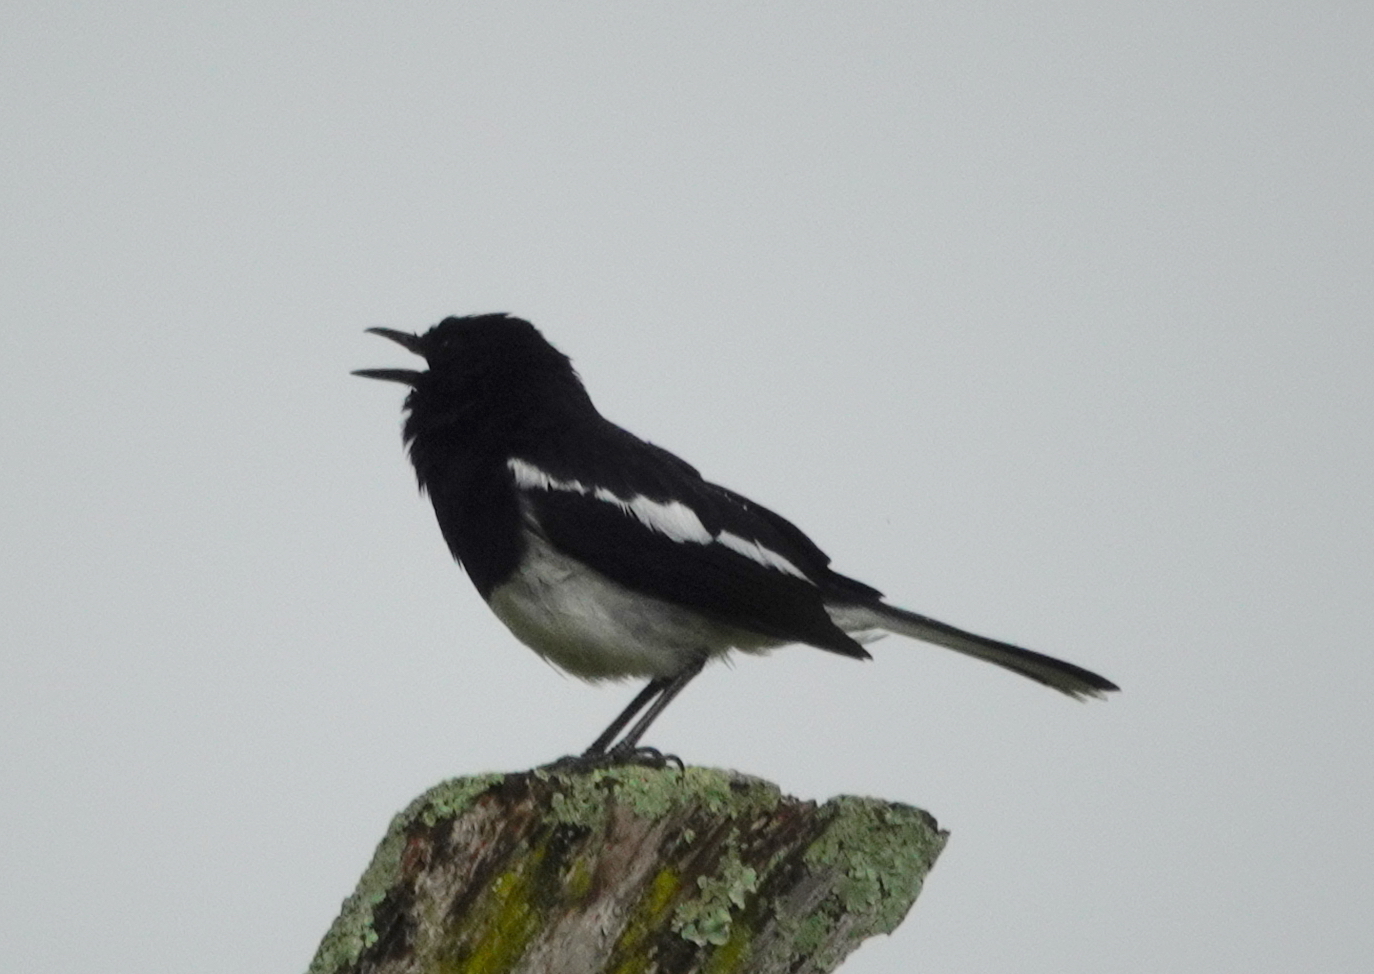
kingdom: Animalia
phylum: Chordata
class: Aves
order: Passeriformes
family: Muscicapidae
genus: Copsychus
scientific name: Copsychus saularis
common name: Oriental magpie-robin
